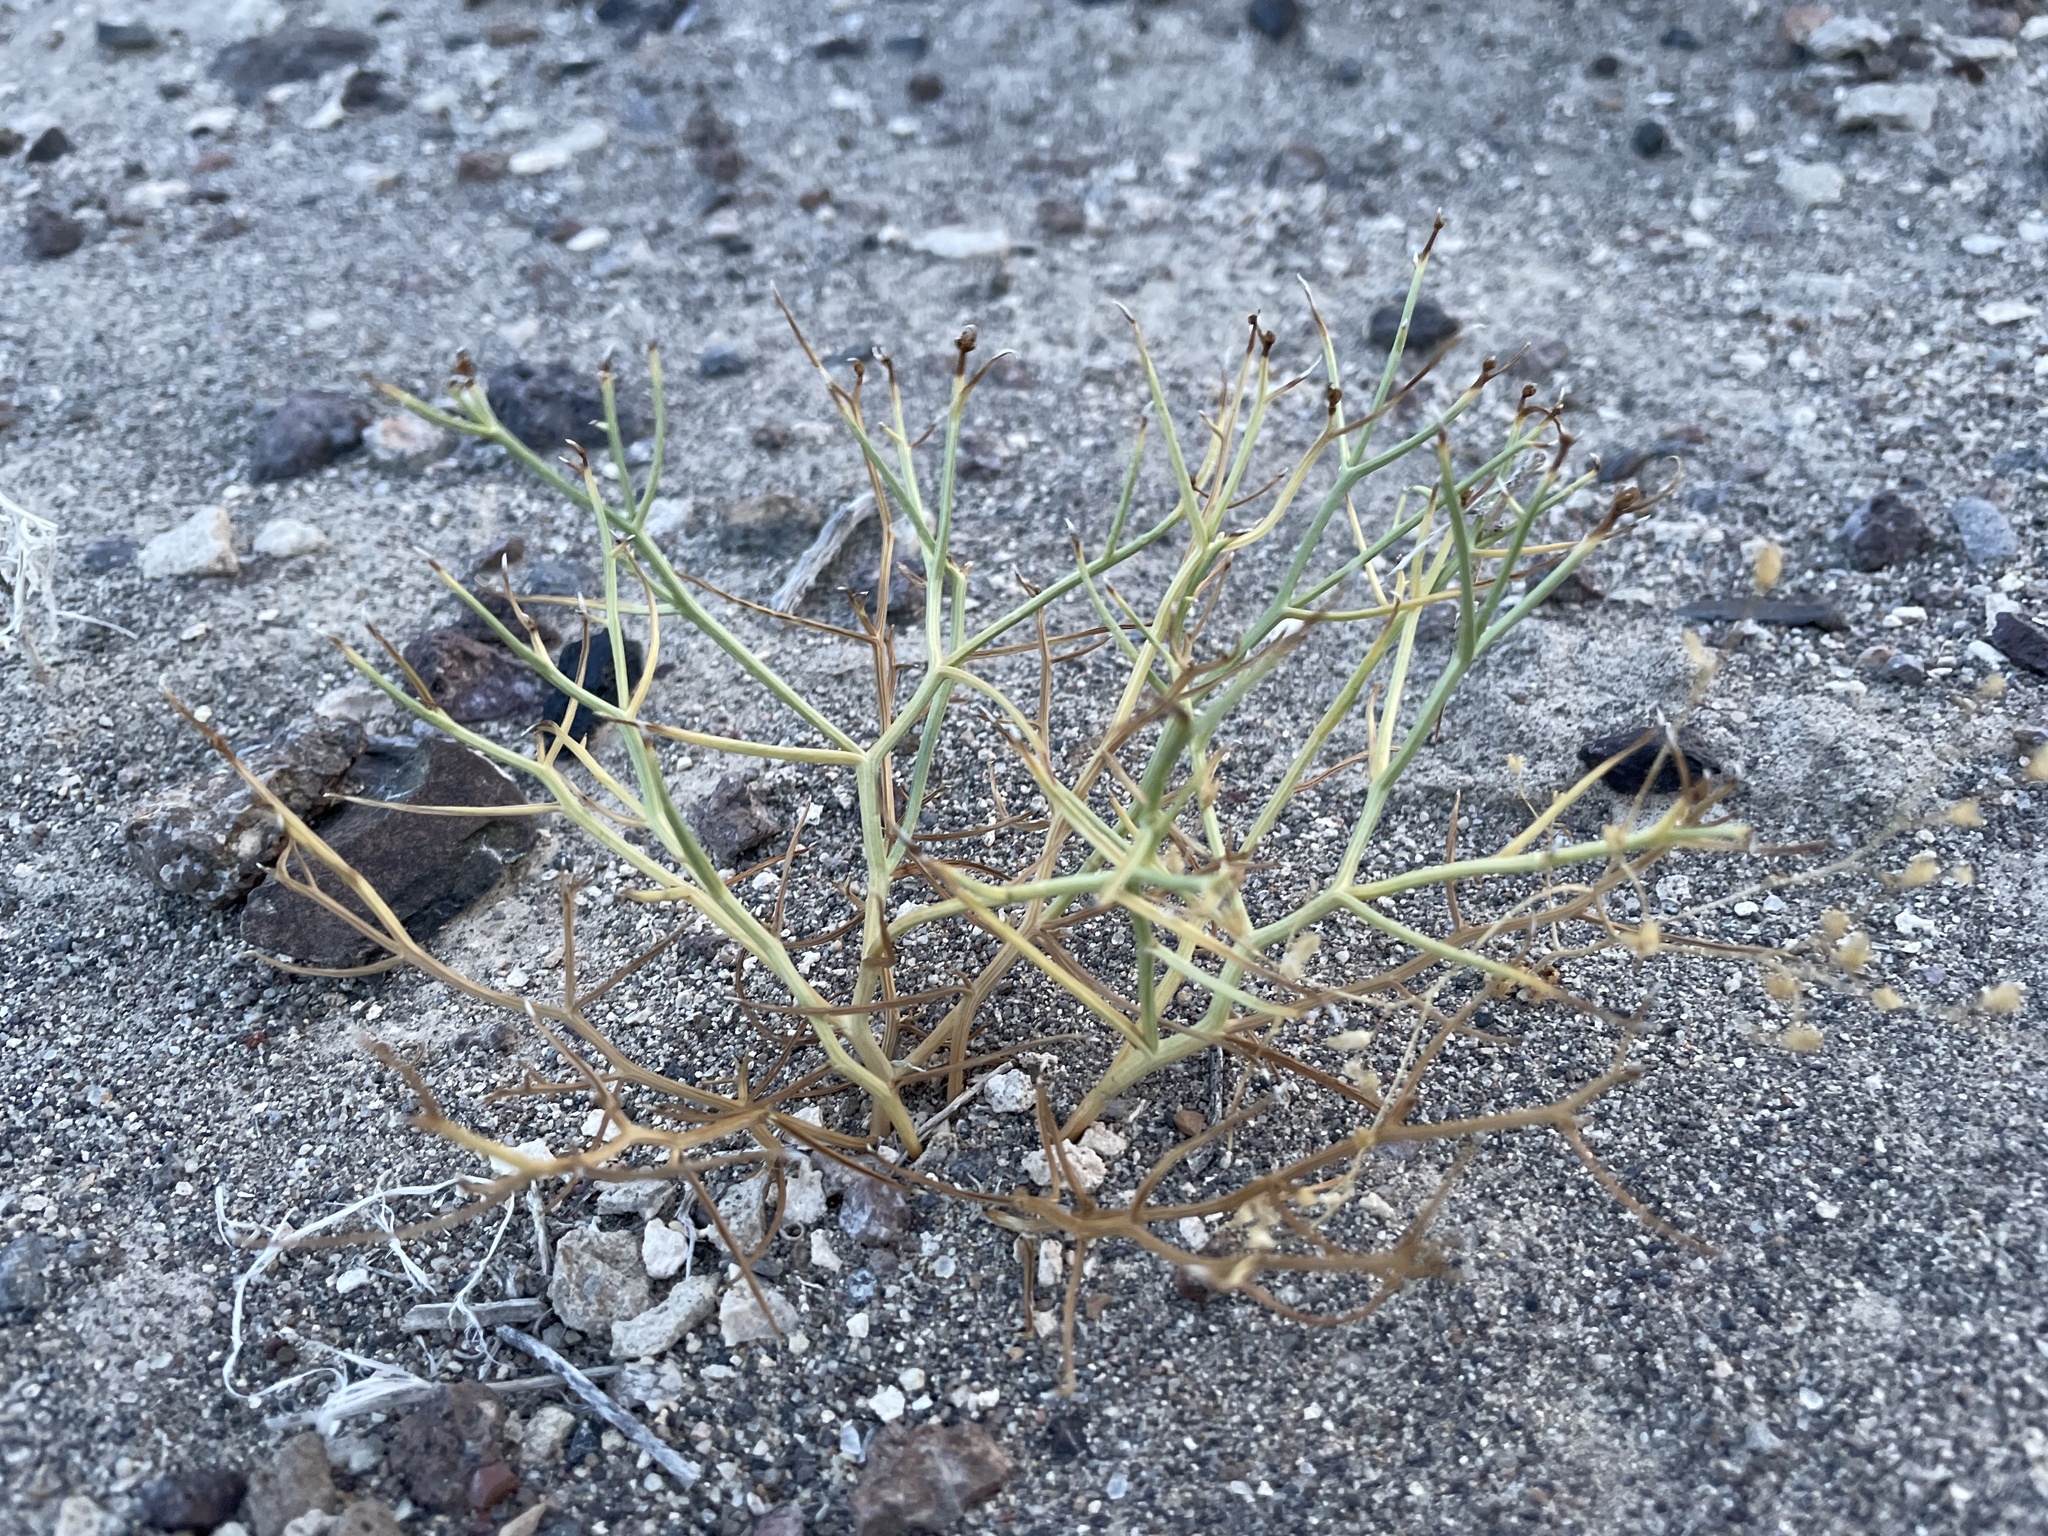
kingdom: Plantae
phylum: Tracheophyta
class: Magnoliopsida
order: Asterales
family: Asteraceae
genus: Chaetadelpha
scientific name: Chaetadelpha wheeleri
